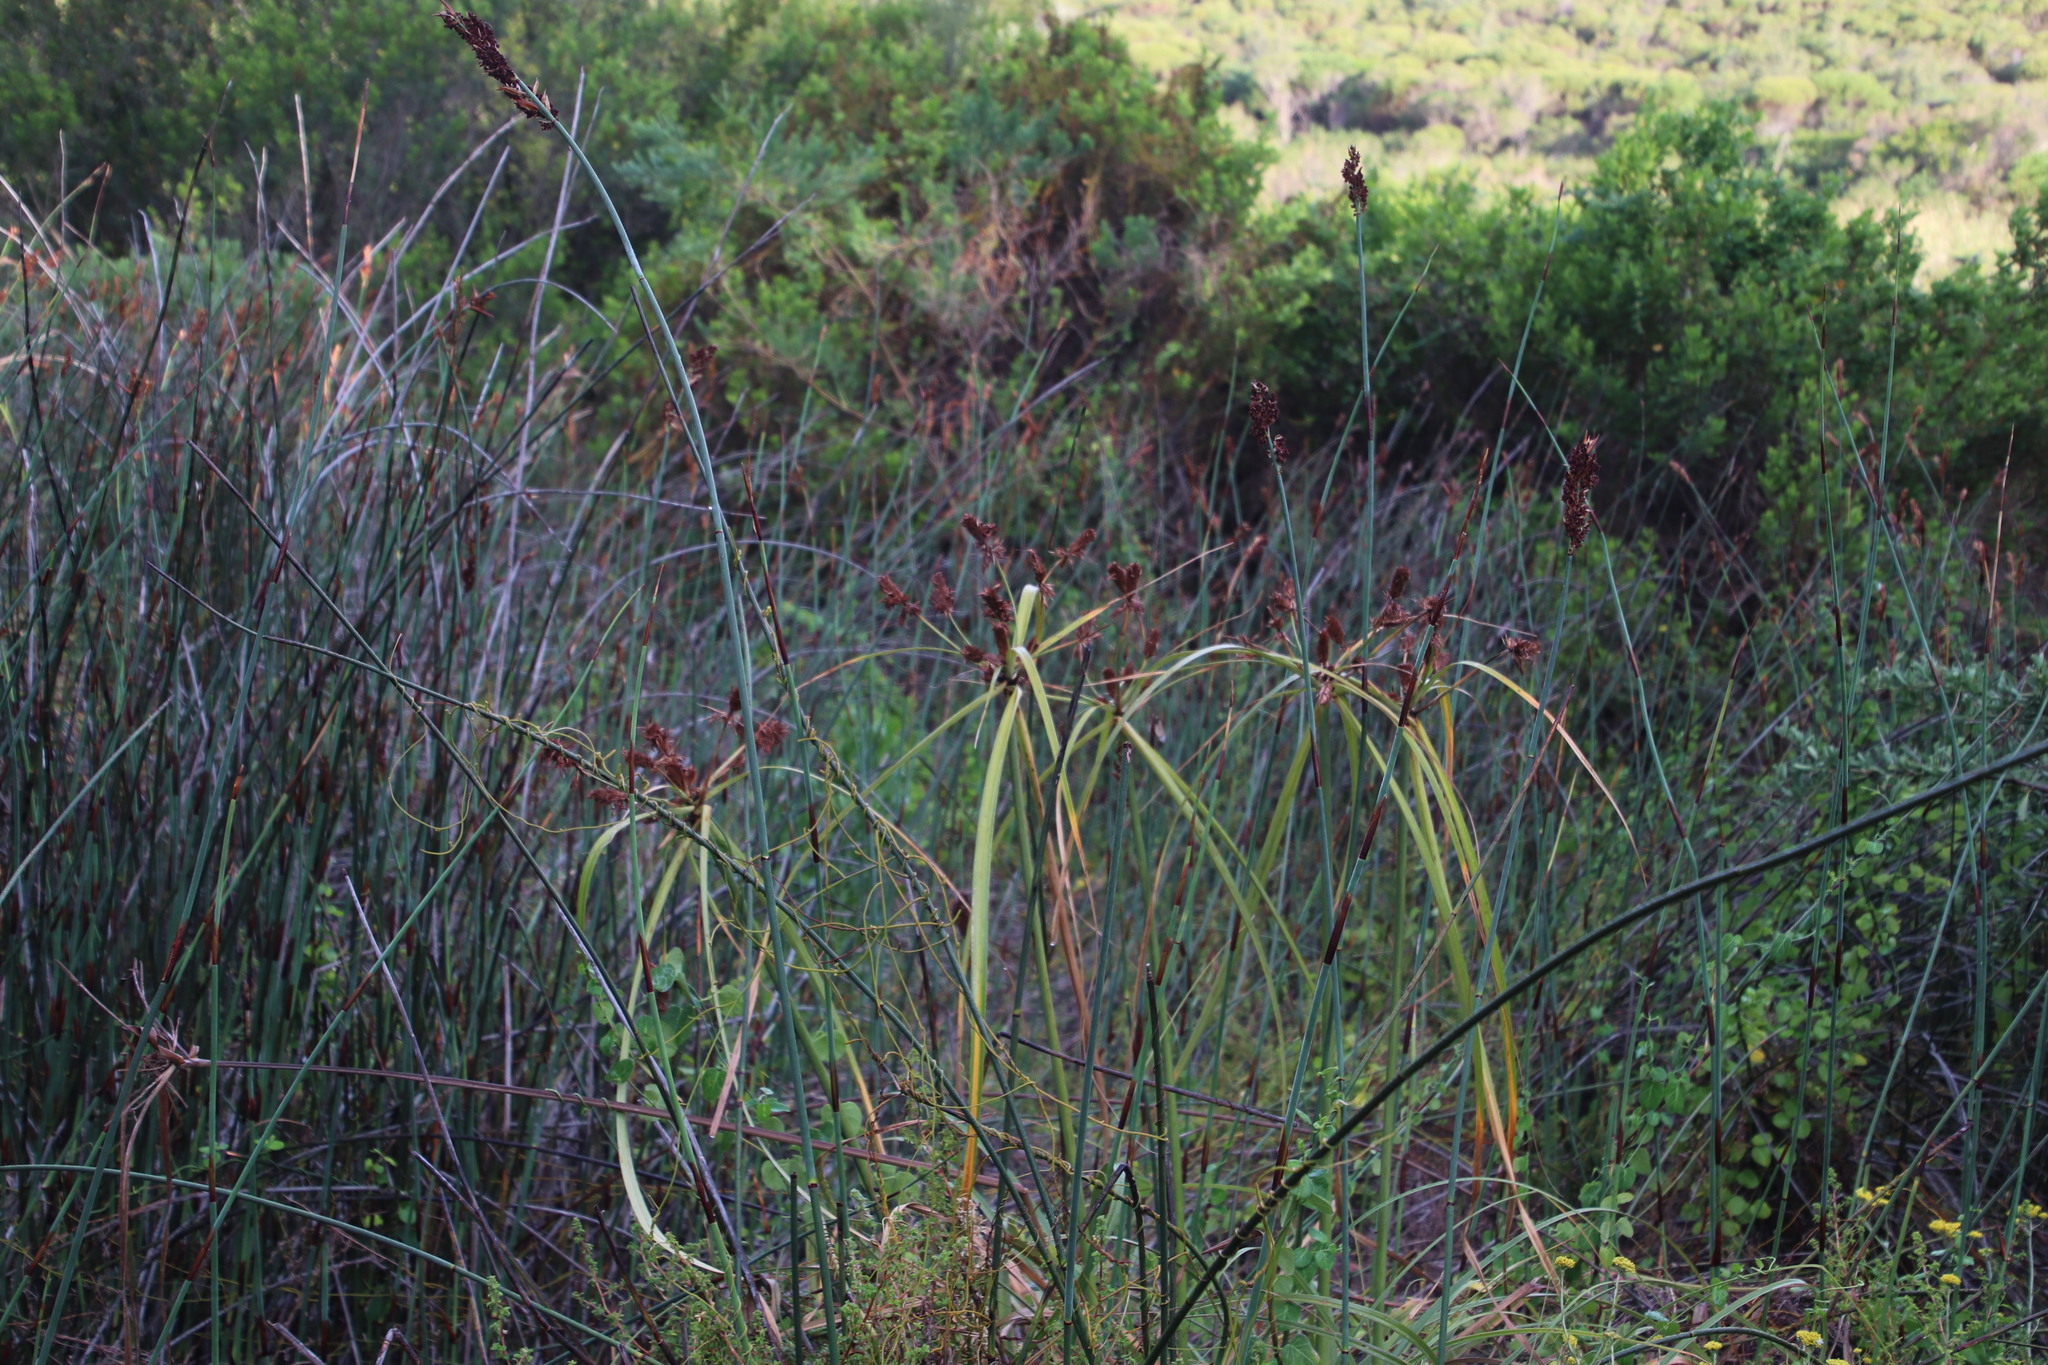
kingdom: Plantae
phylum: Tracheophyta
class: Liliopsida
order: Poales
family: Cyperaceae
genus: Cyperus
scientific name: Cyperus thunbergii
